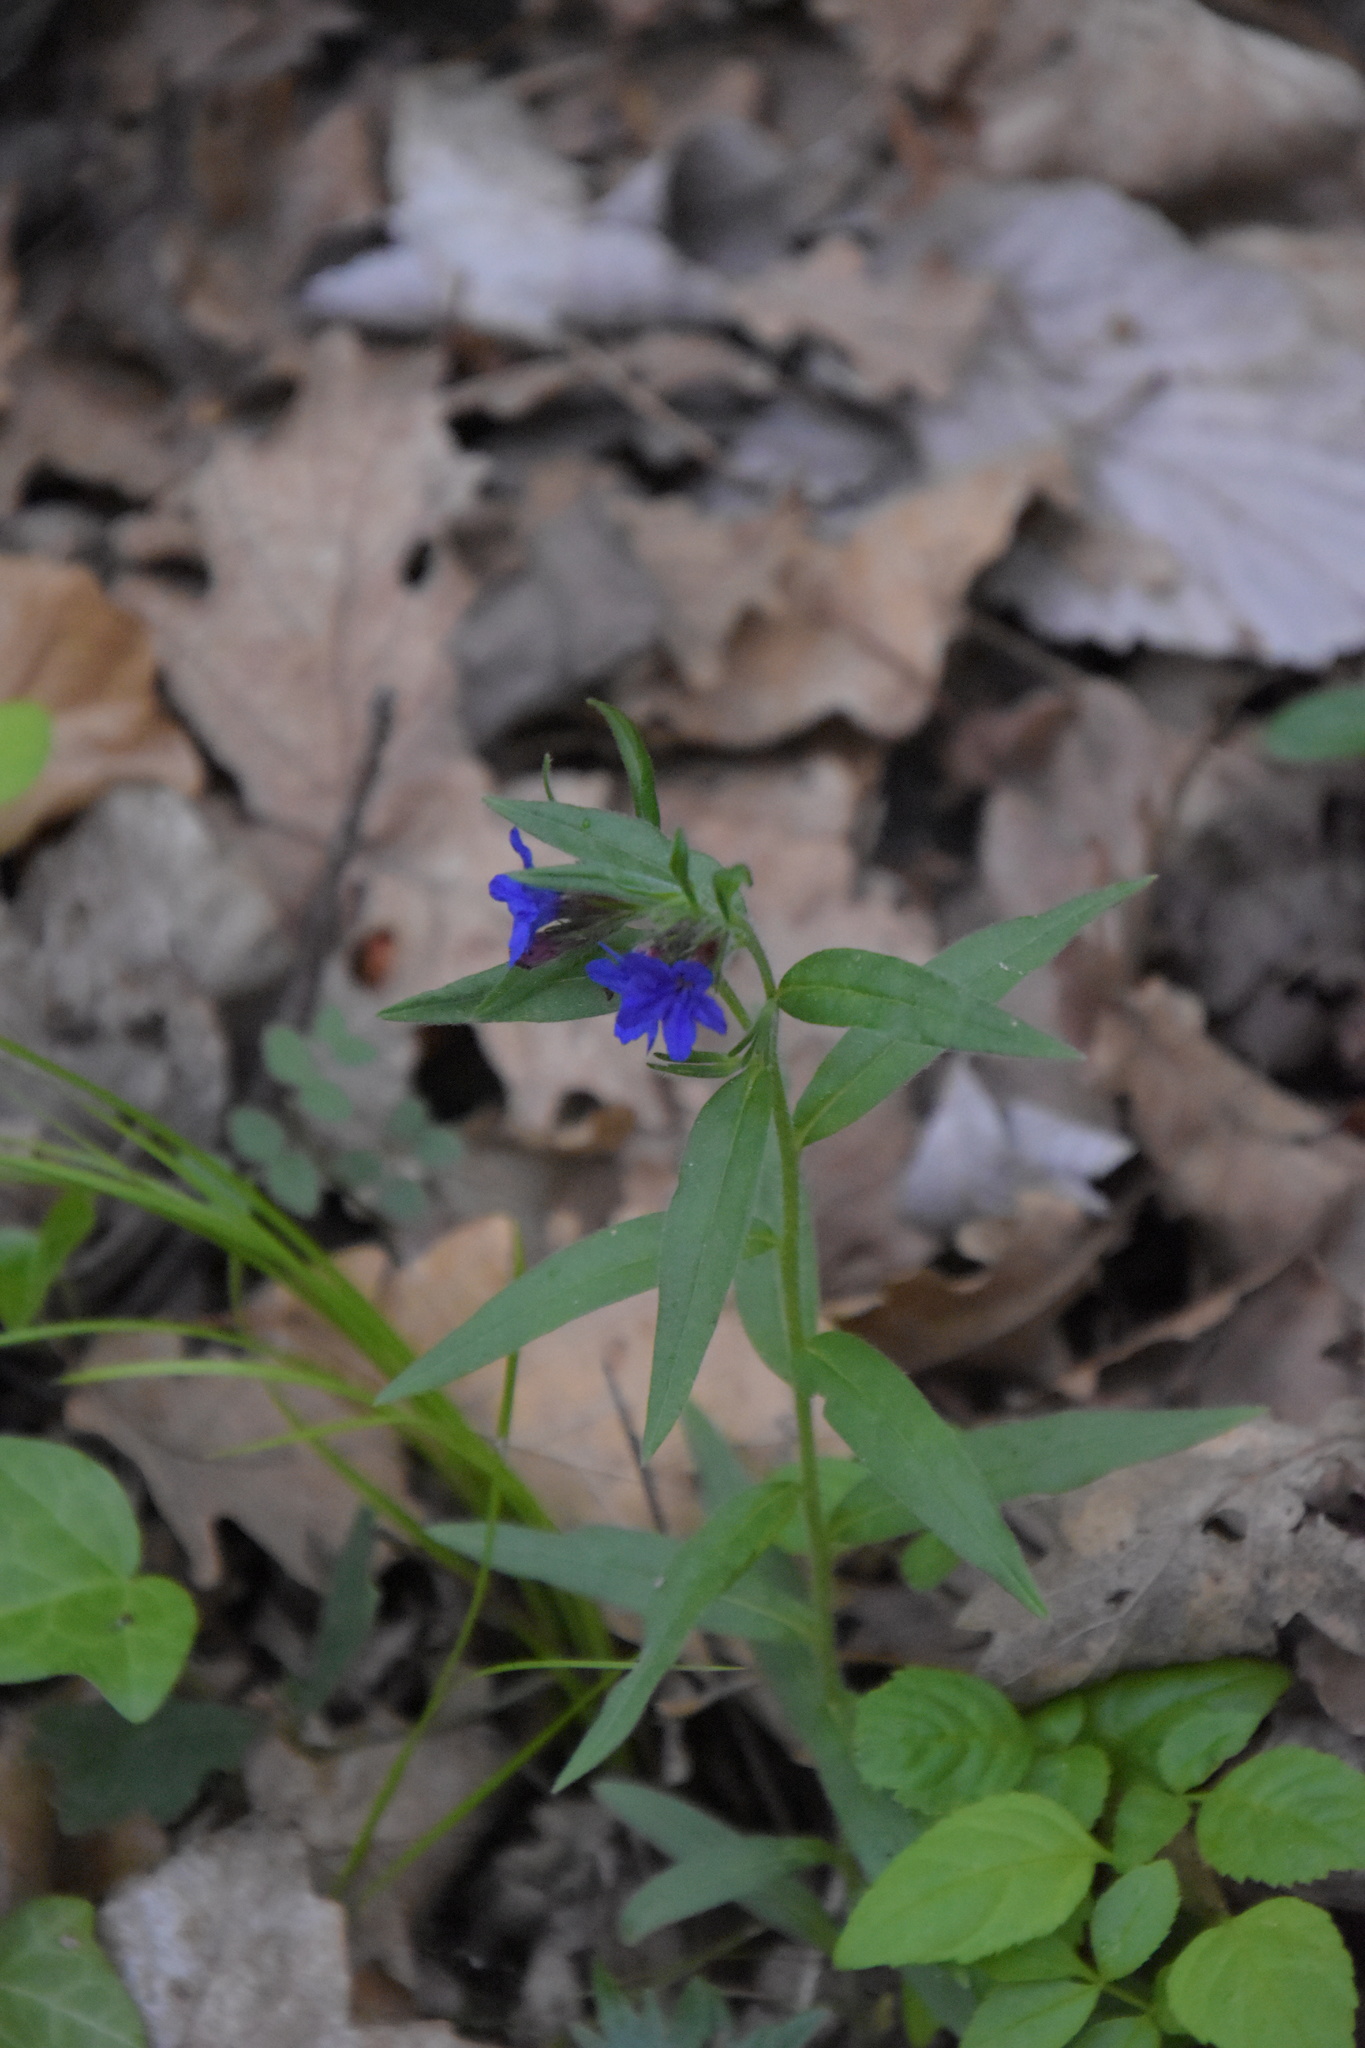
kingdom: Plantae
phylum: Tracheophyta
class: Magnoliopsida
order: Boraginales
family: Boraginaceae
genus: Aegonychon
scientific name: Aegonychon purpurocaeruleum
